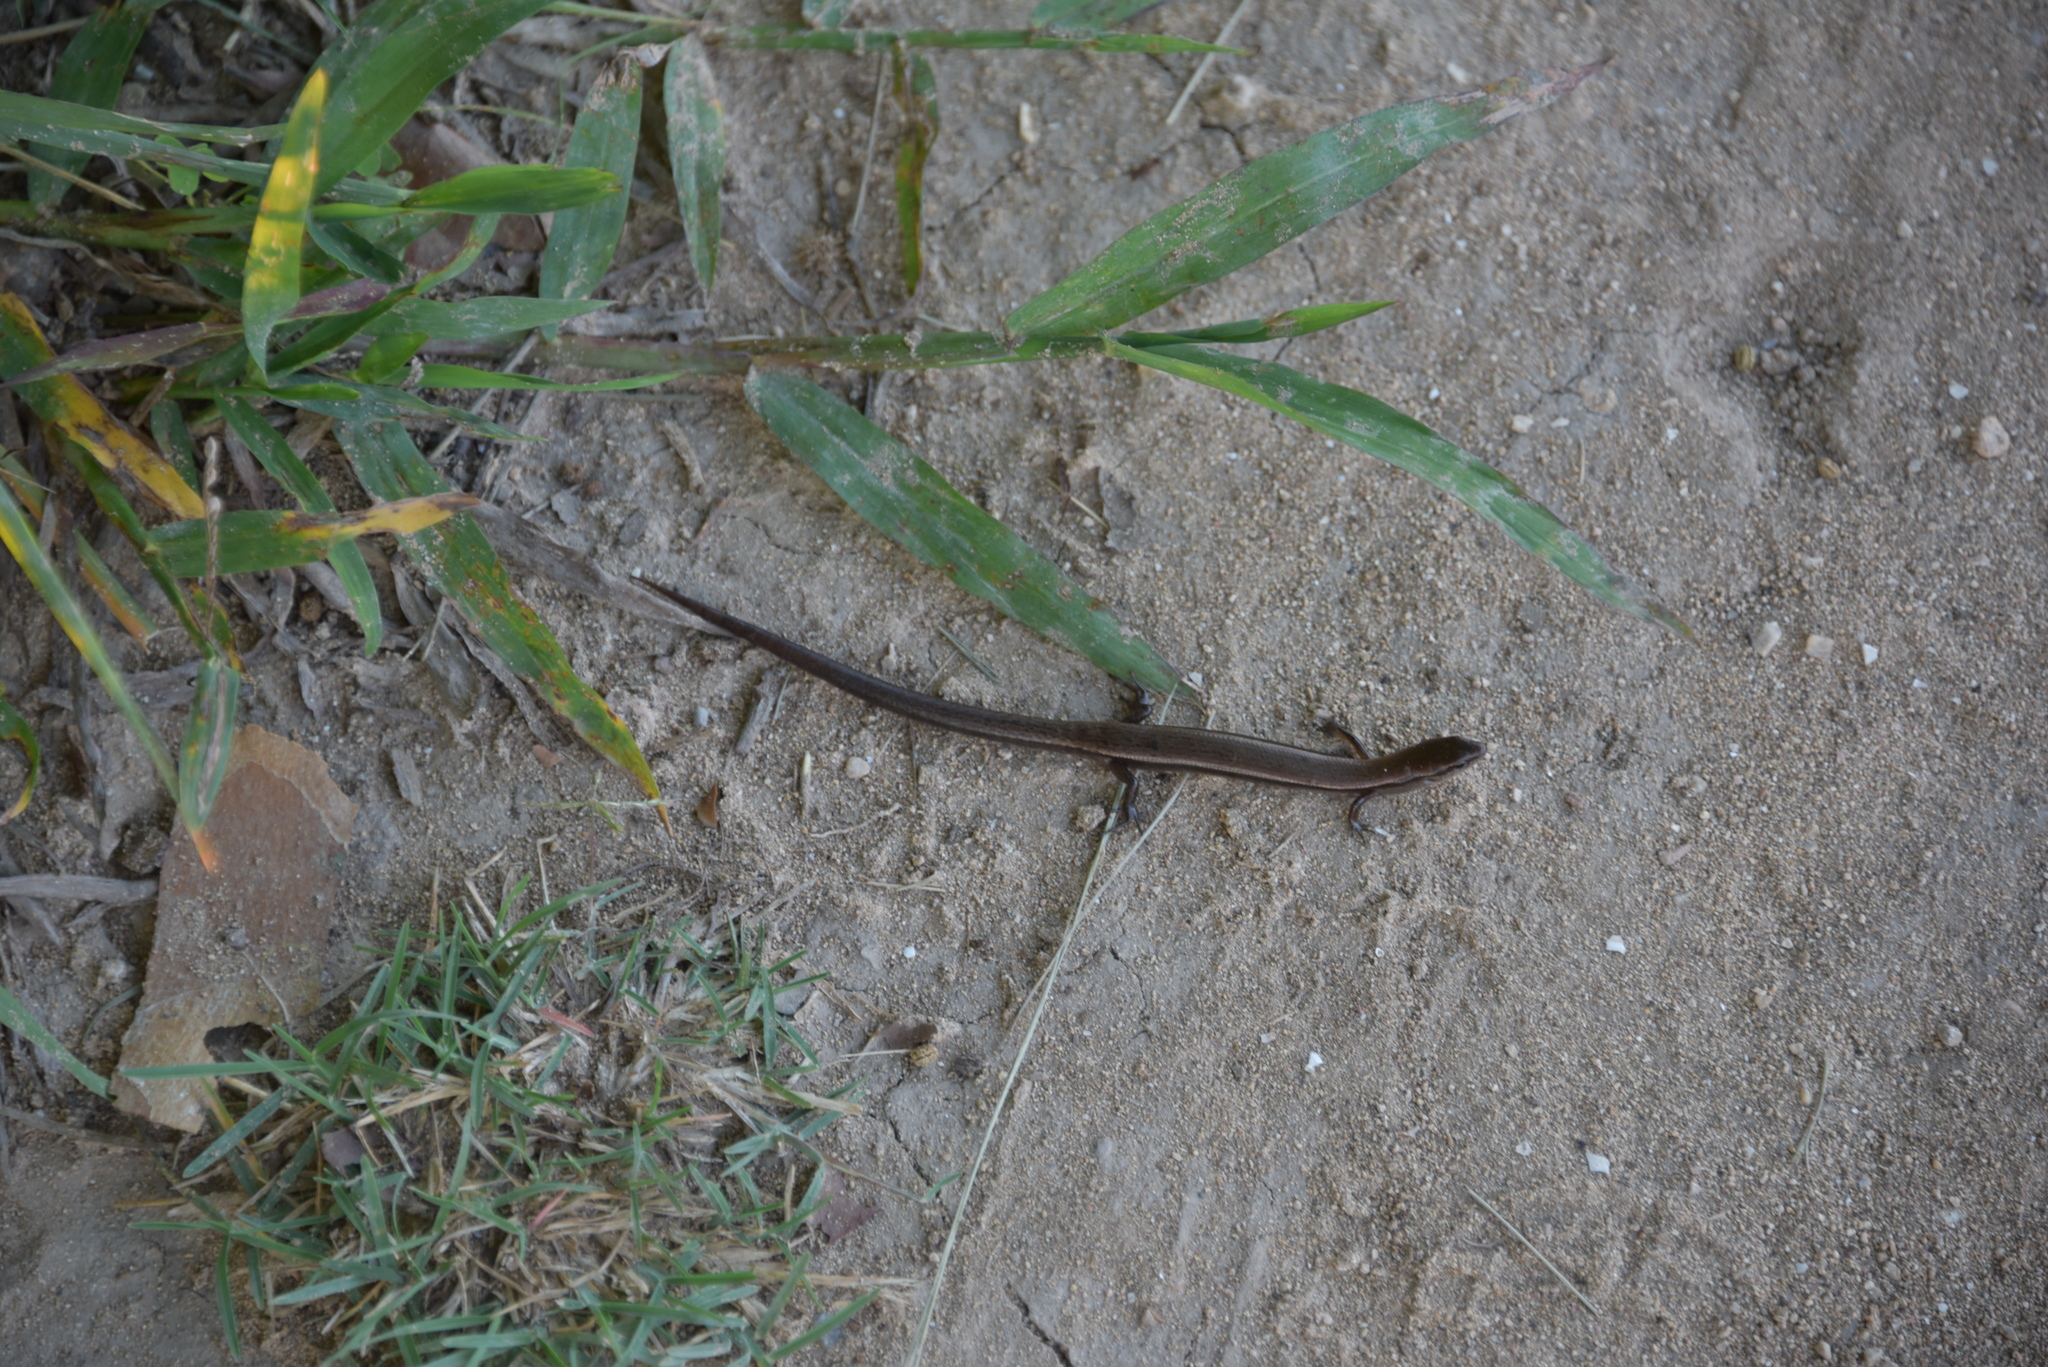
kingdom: Animalia
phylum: Chordata
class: Squamata
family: Scincidae
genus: Scincella
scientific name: Scincella lateralis
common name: Ground skink
